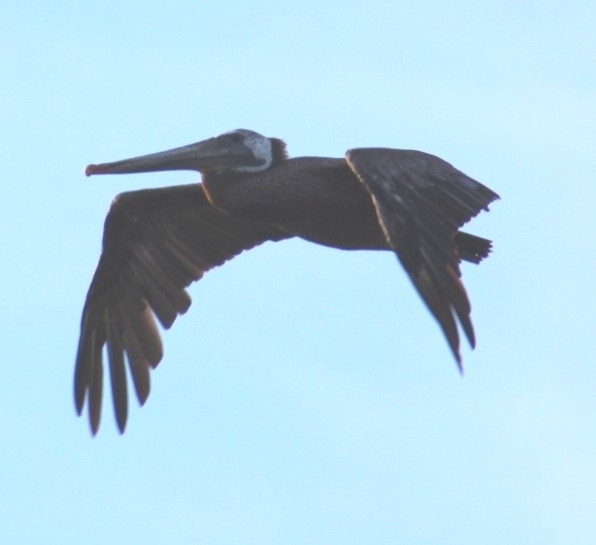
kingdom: Animalia
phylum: Chordata
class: Aves
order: Pelecaniformes
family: Pelecanidae
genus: Pelecanus
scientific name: Pelecanus occidentalis
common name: Brown pelican
